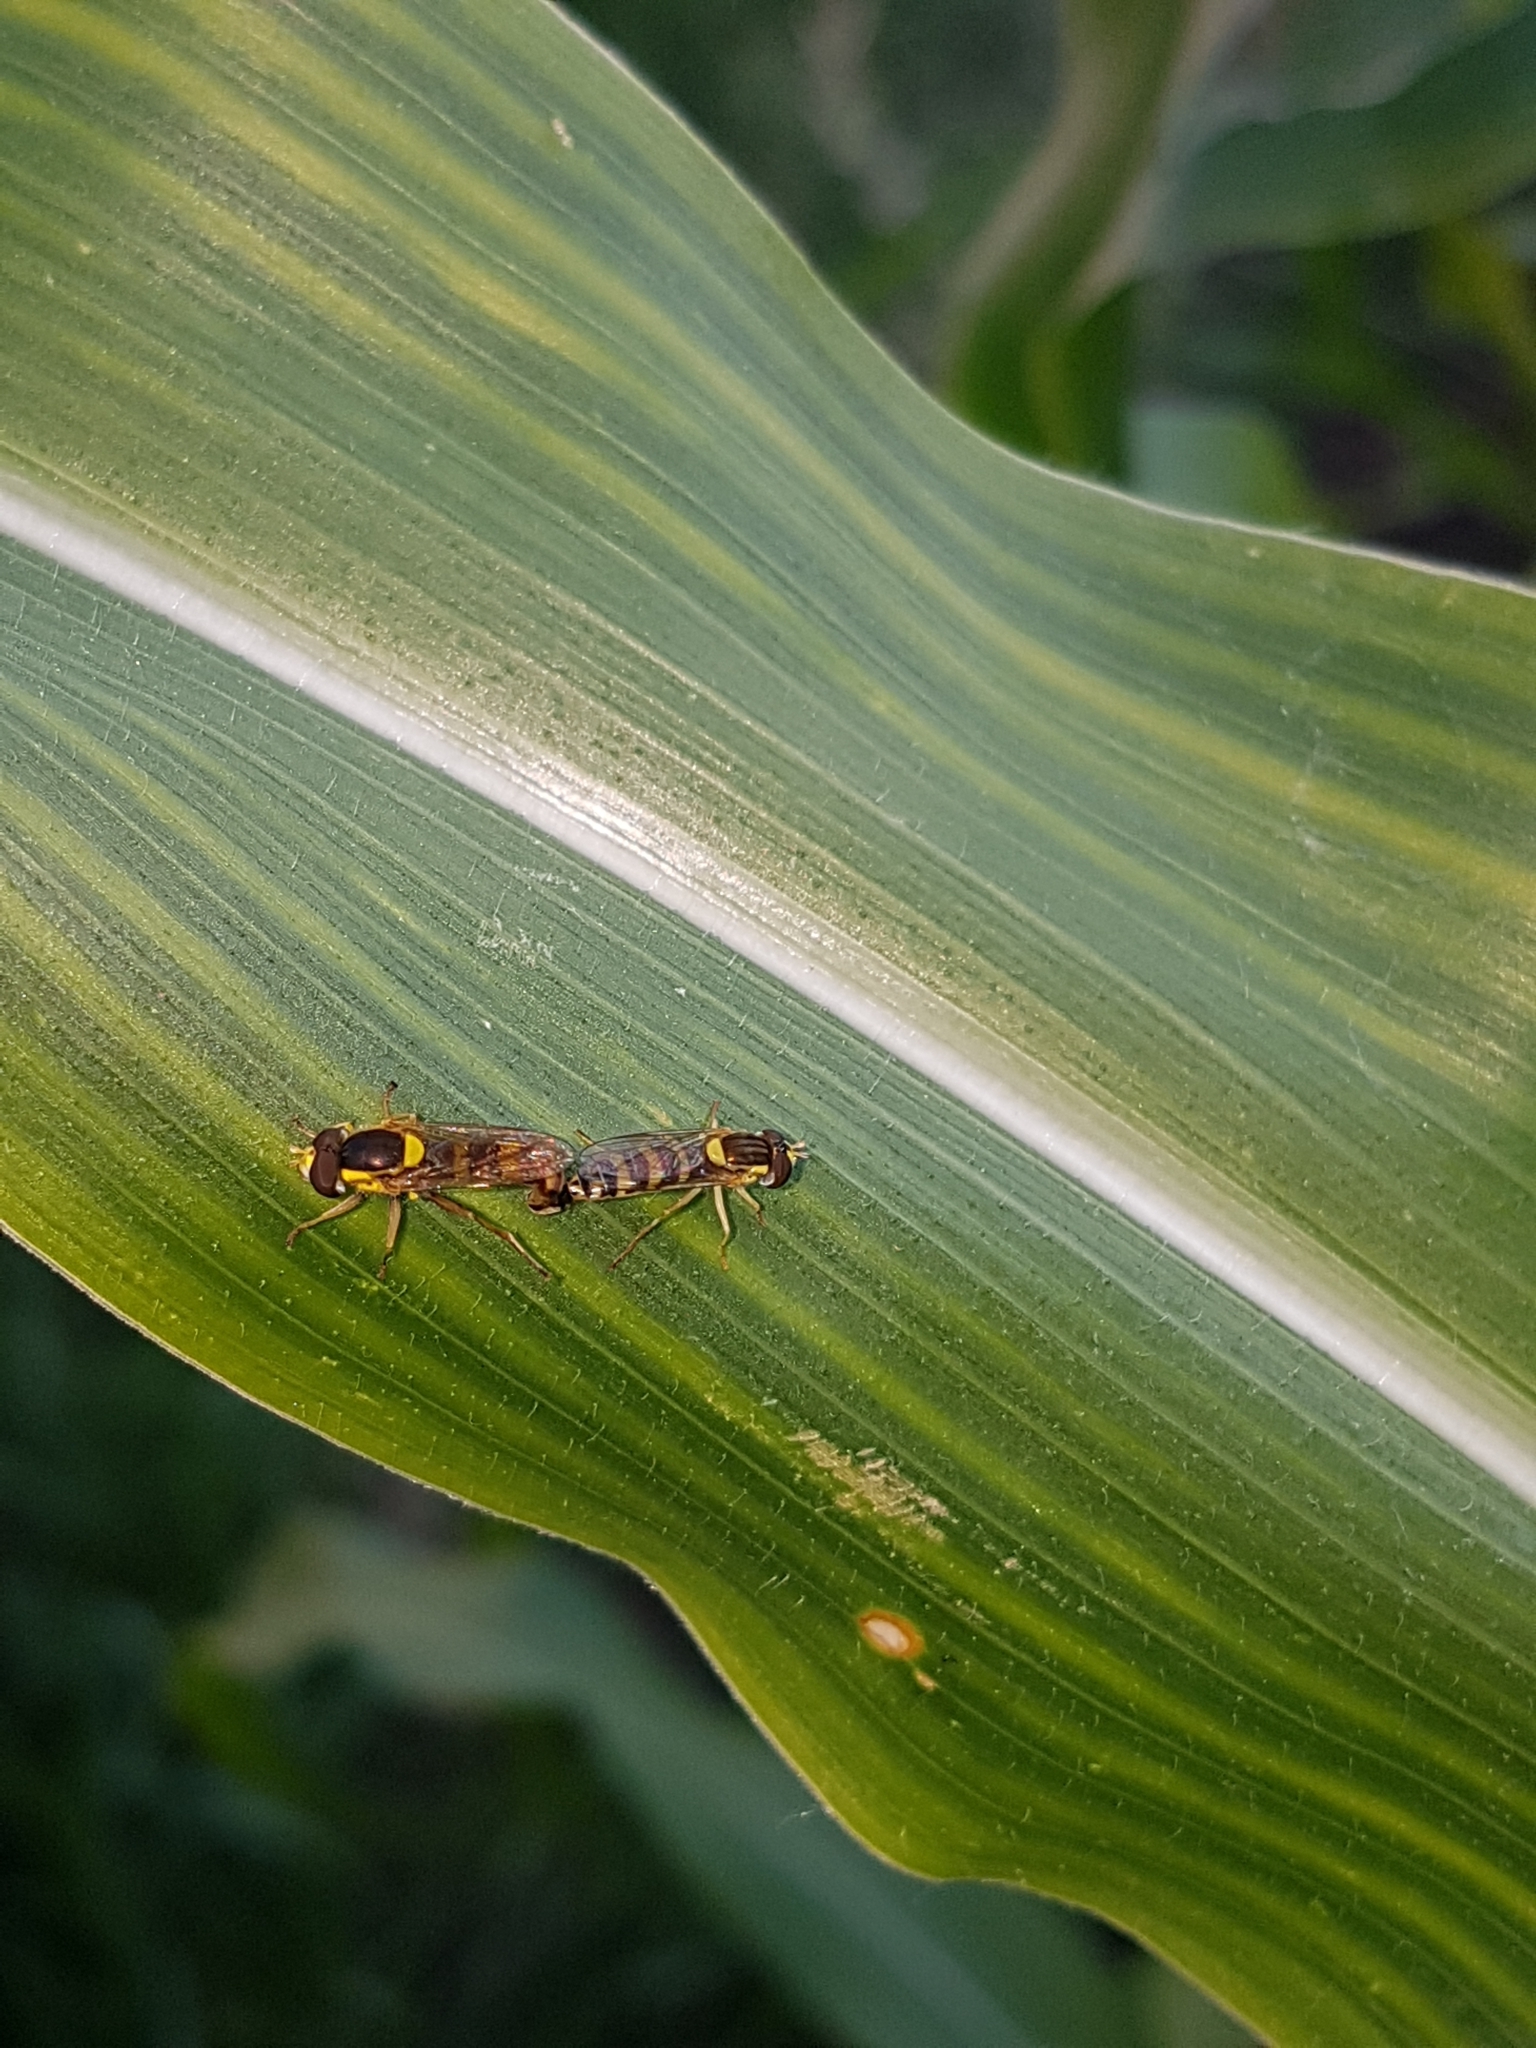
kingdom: Animalia
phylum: Arthropoda
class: Insecta
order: Diptera
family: Syrphidae
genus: Sphaerophoria
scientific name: Sphaerophoria scripta
